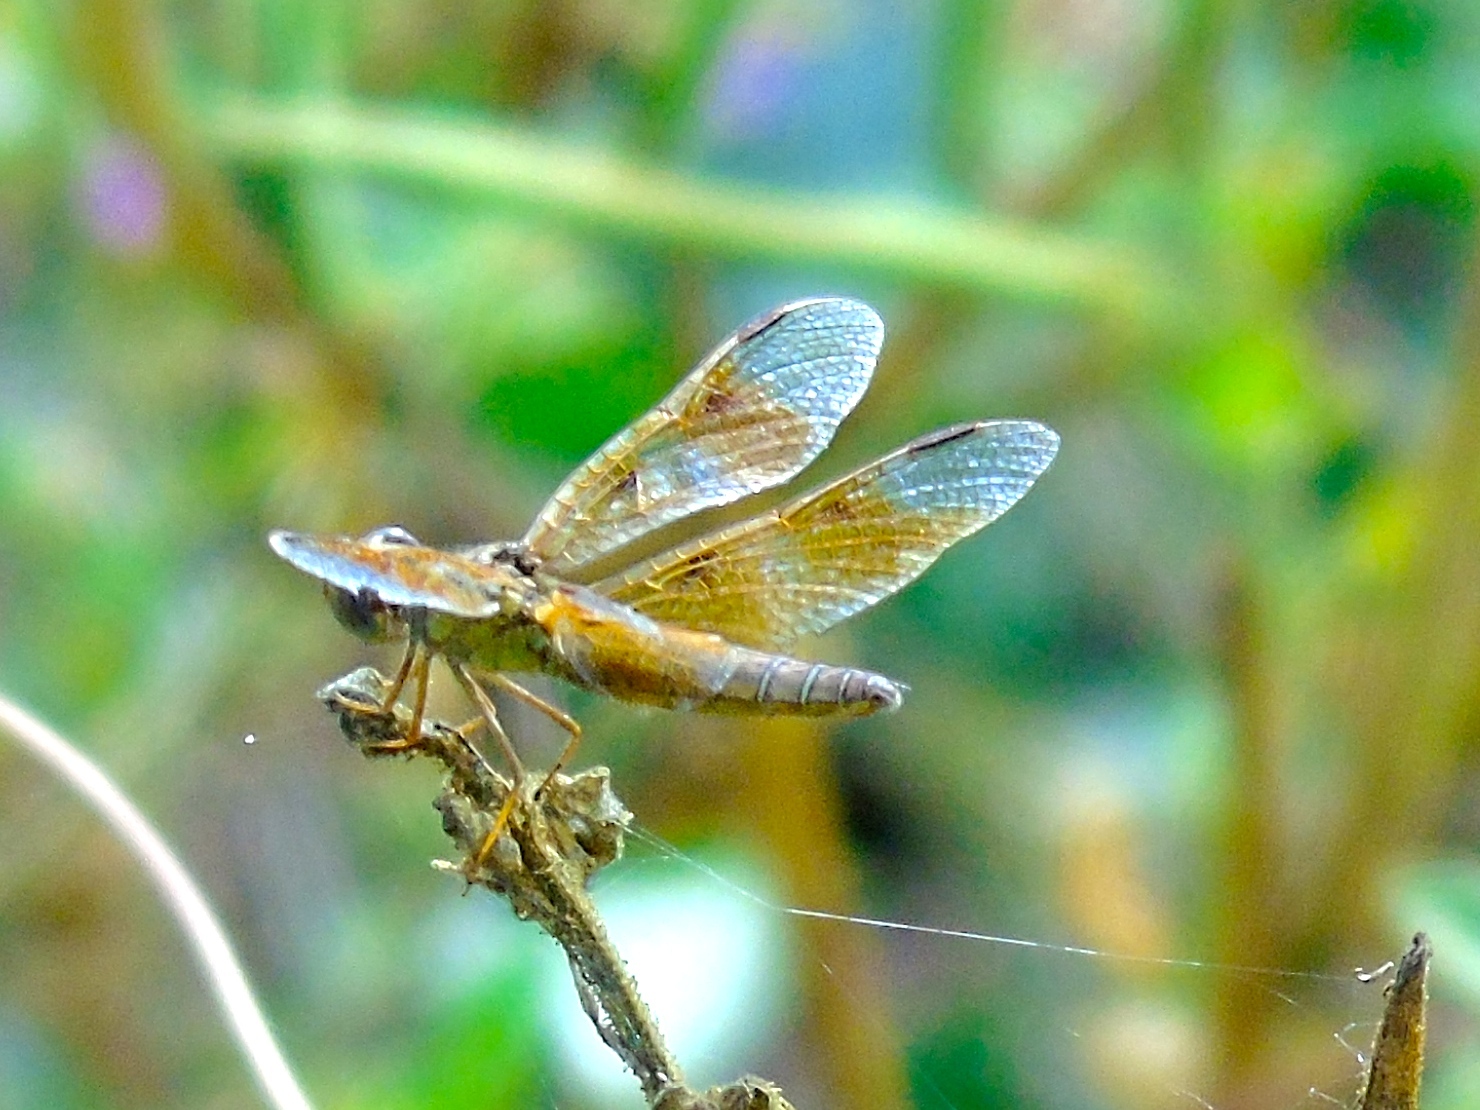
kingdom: Animalia
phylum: Arthropoda
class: Insecta
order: Odonata
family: Libellulidae
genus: Perithemis
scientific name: Perithemis intensa
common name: Mexican amberwing
